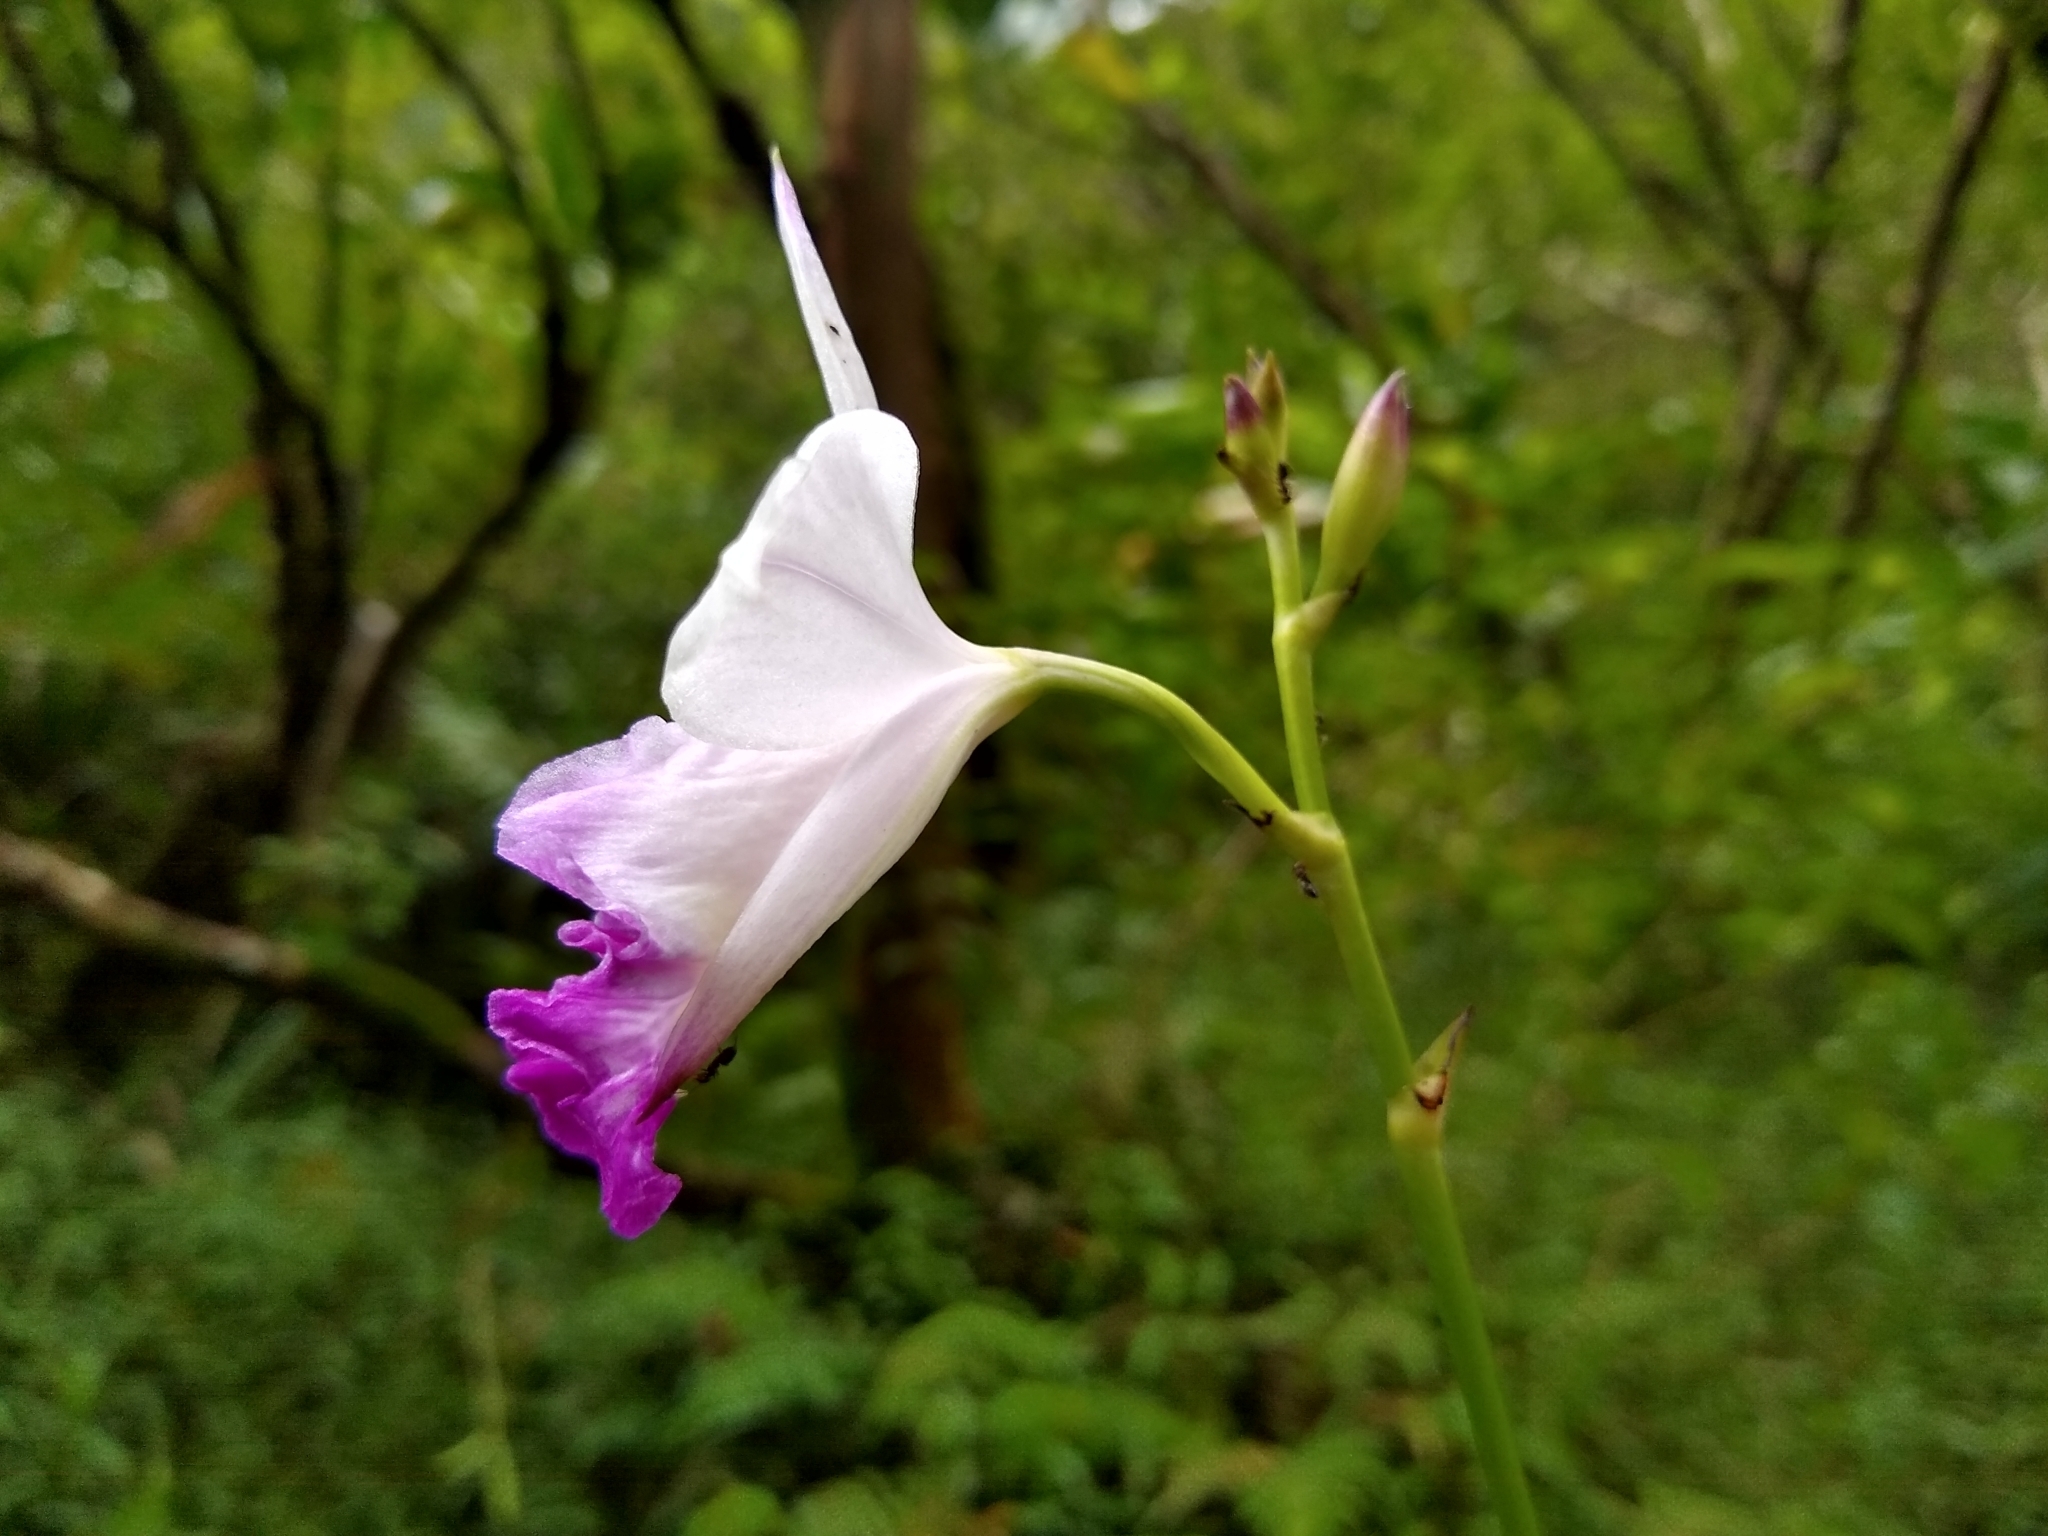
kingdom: Plantae
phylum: Tracheophyta
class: Liliopsida
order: Asparagales
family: Orchidaceae
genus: Arundina
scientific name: Arundina graminifolia
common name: Bamboo orchid
